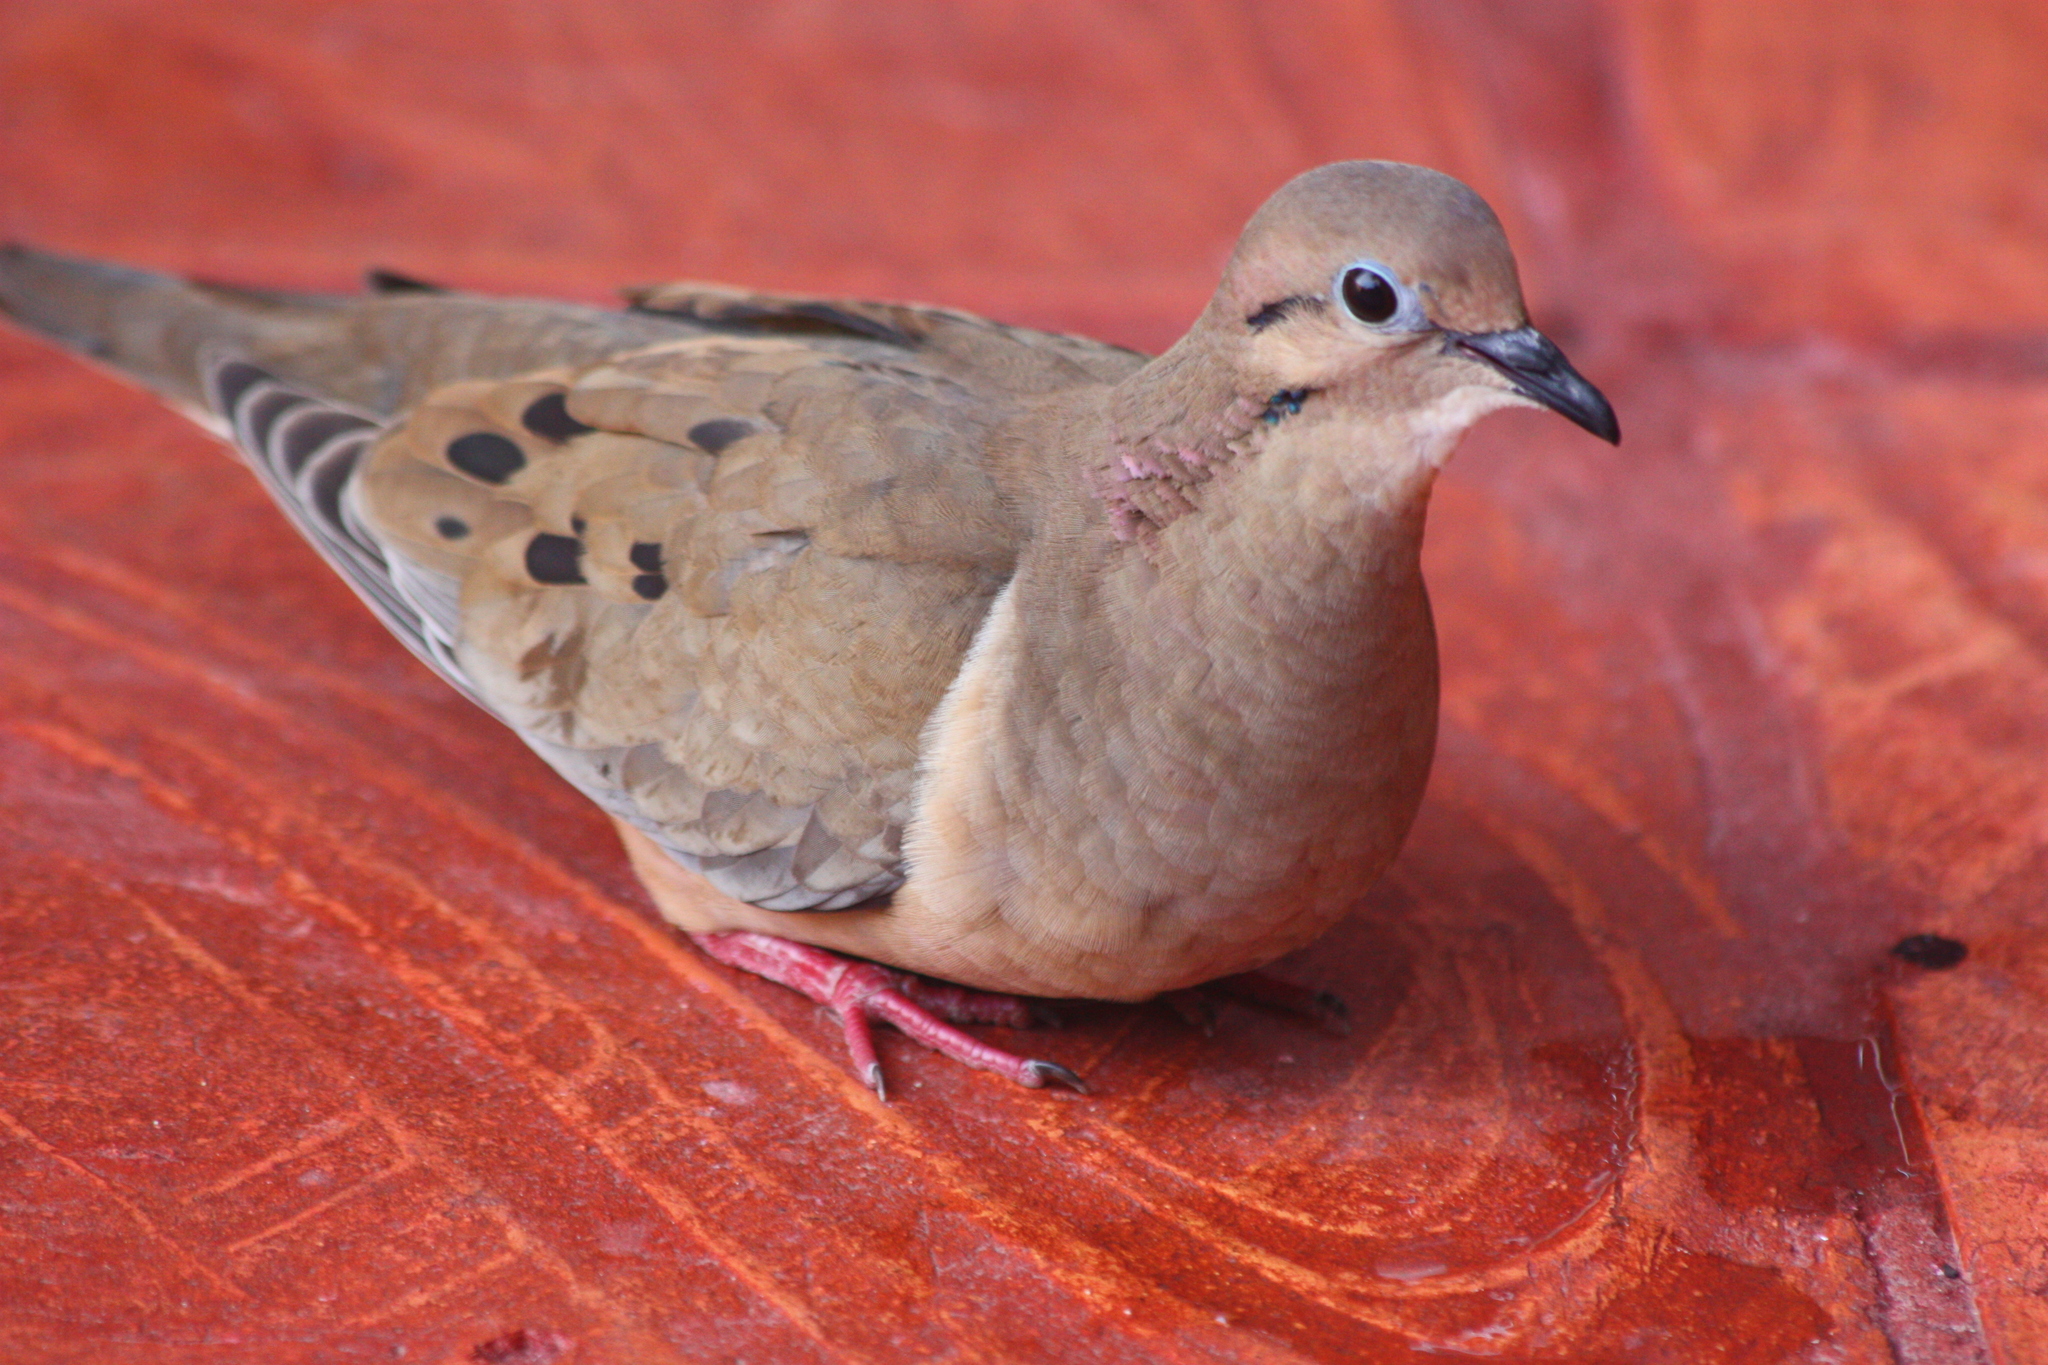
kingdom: Animalia
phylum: Chordata
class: Aves
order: Columbiformes
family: Columbidae
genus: Zenaida
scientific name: Zenaida auriculata
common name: Eared dove
